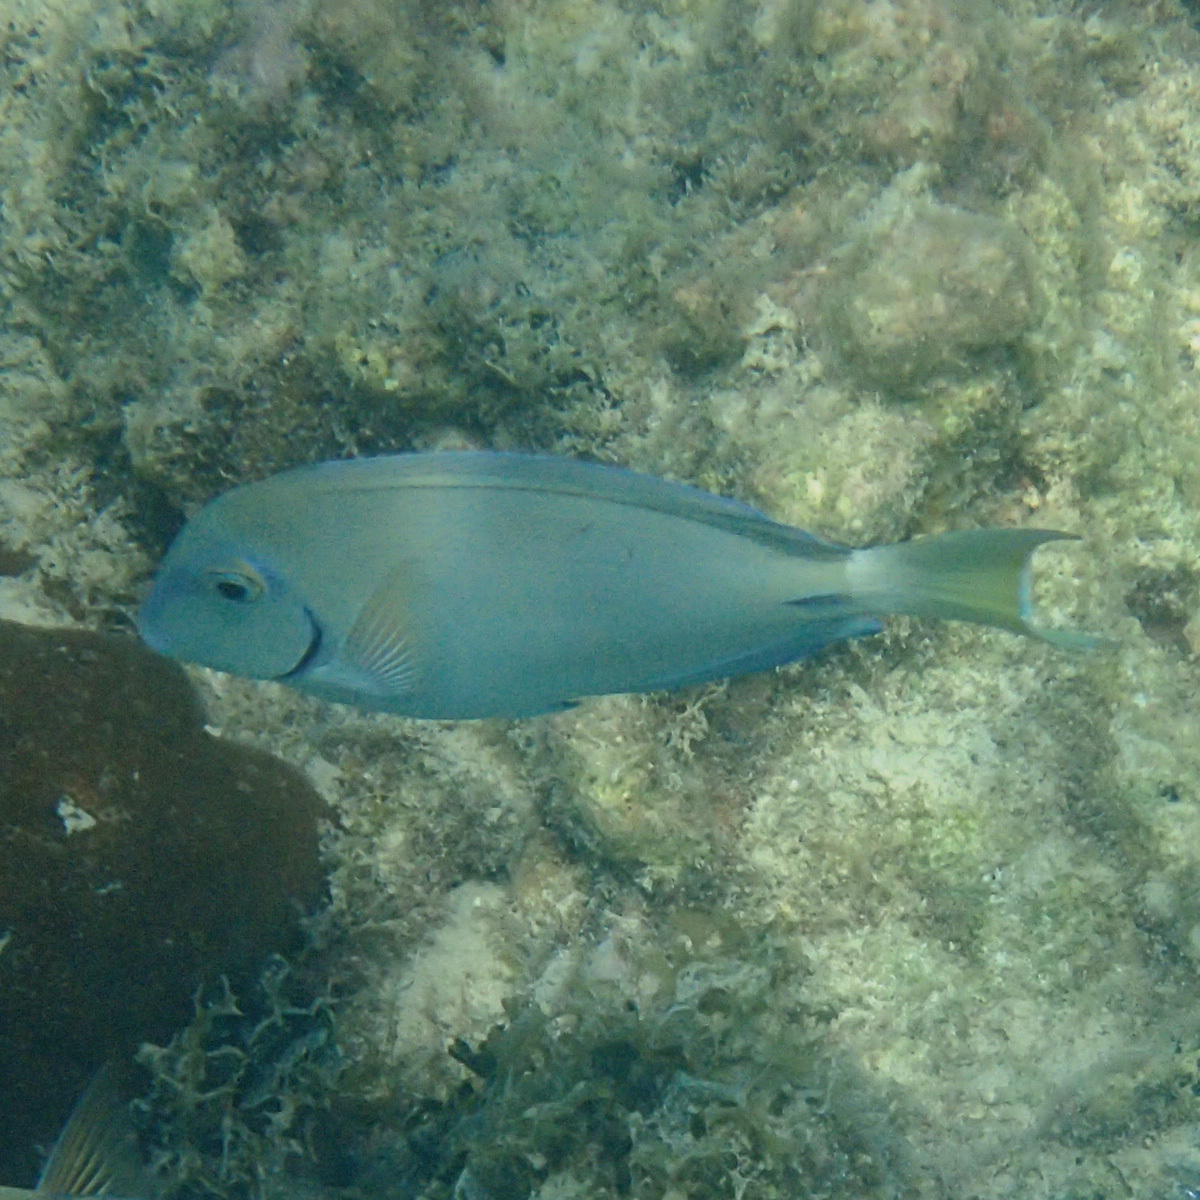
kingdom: Animalia
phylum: Chordata
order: Perciformes
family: Acanthuridae
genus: Acanthurus
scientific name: Acanthurus bahianus
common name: Ocean surgeon
